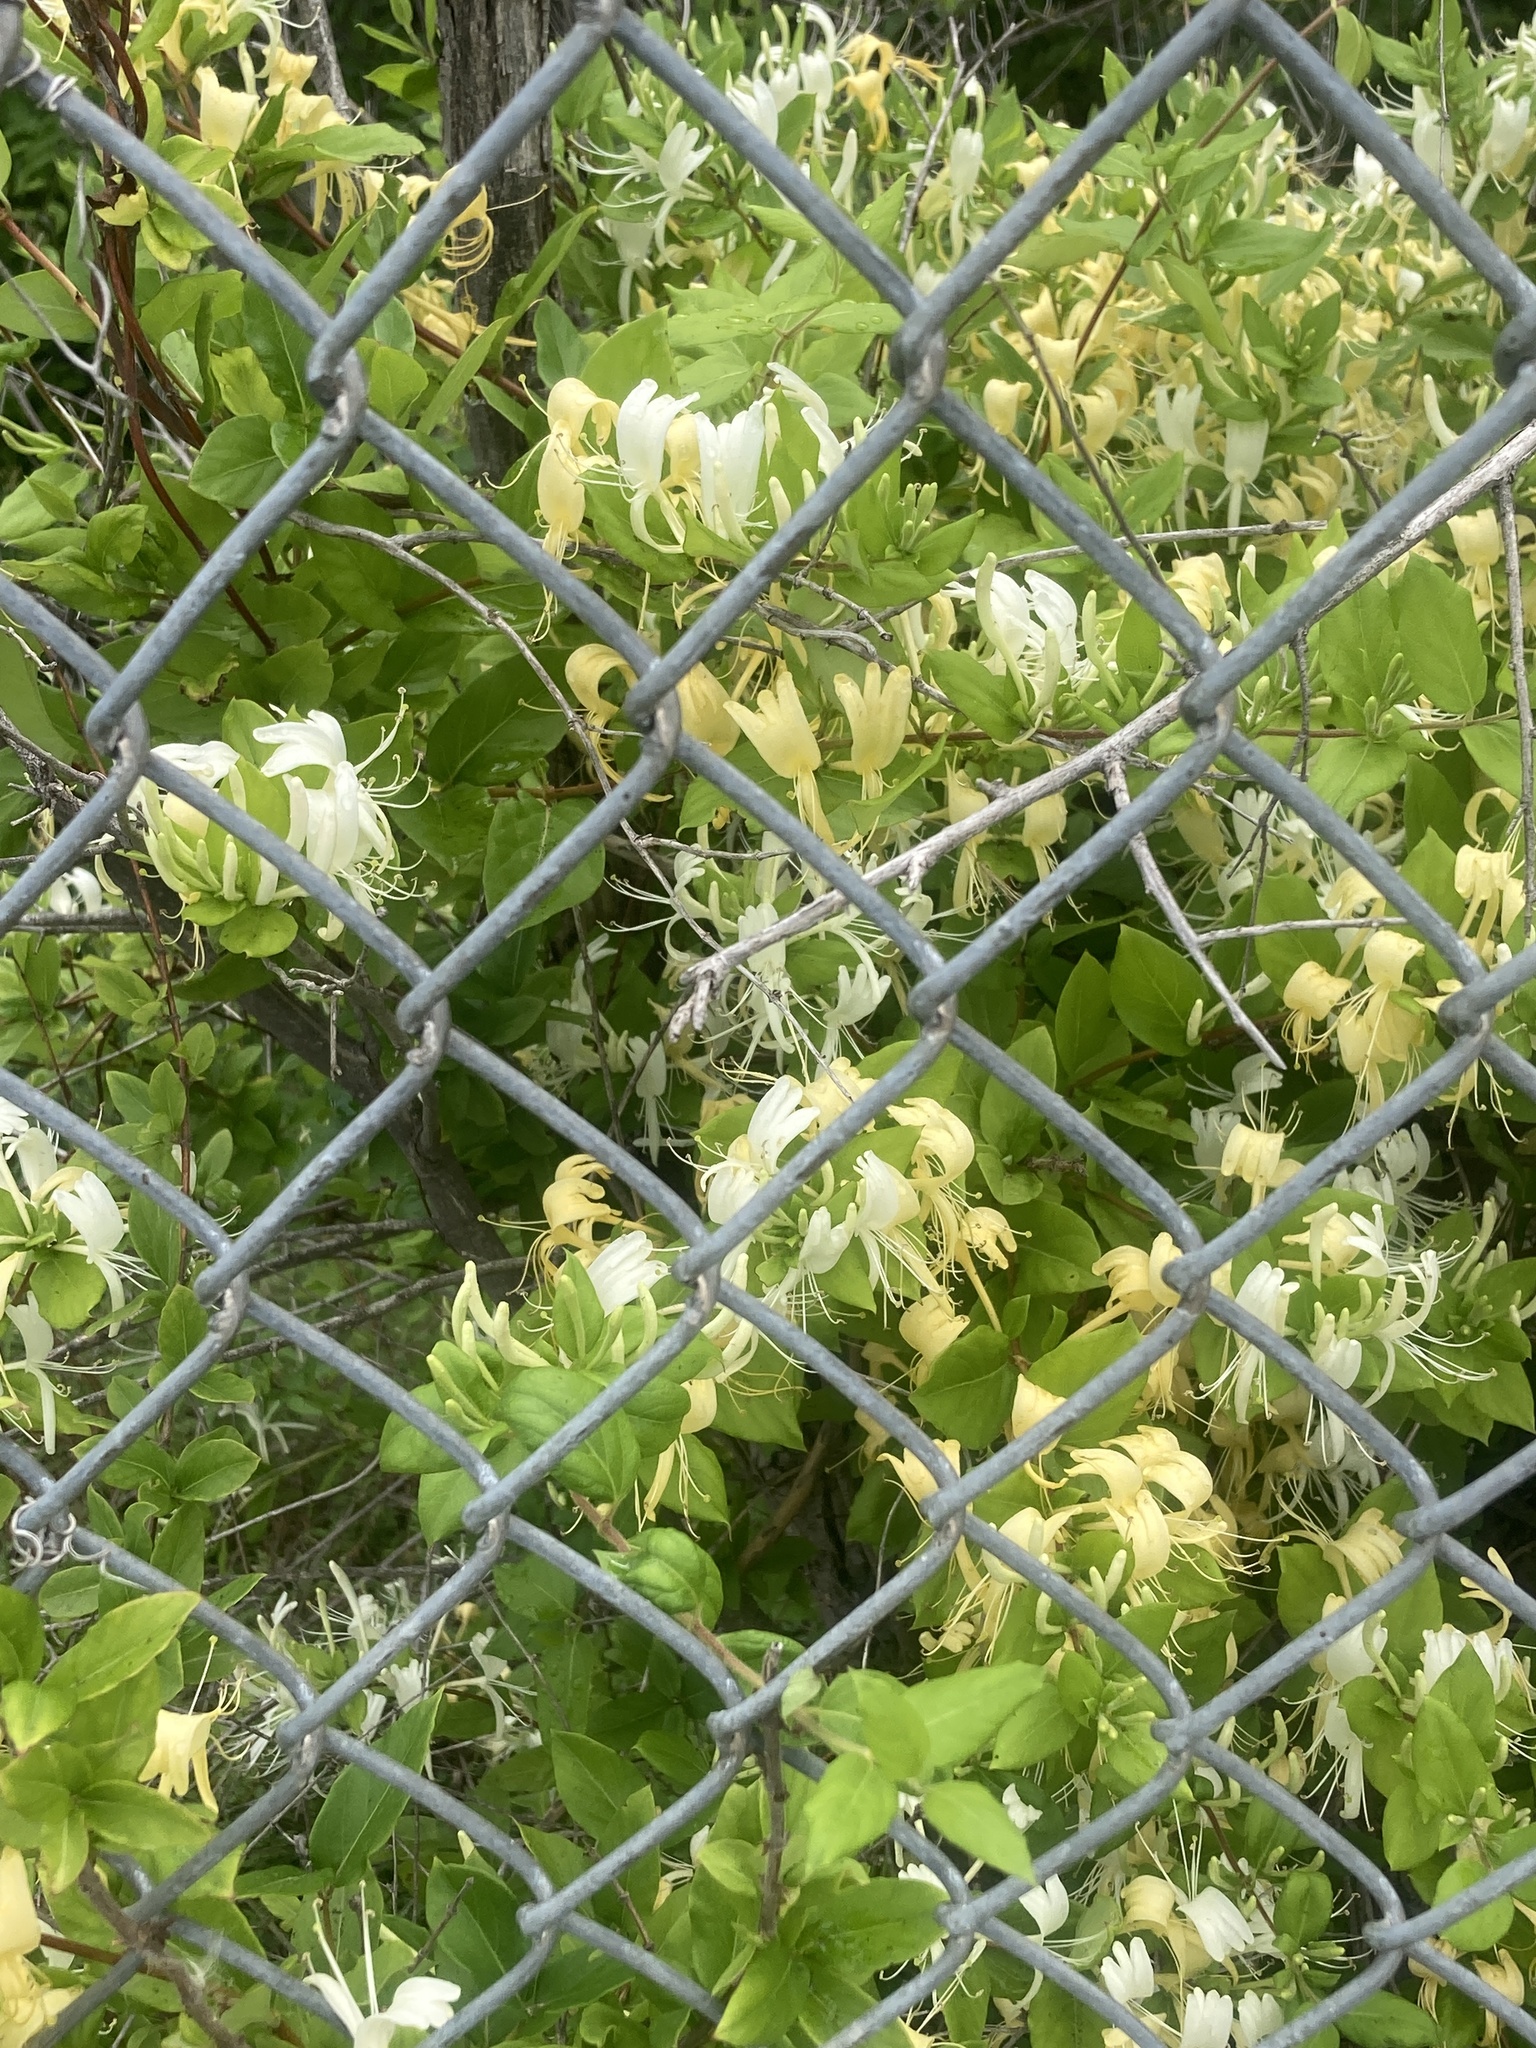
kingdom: Plantae
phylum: Tracheophyta
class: Magnoliopsida
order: Dipsacales
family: Caprifoliaceae
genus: Lonicera
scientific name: Lonicera japonica
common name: Japanese honeysuckle
